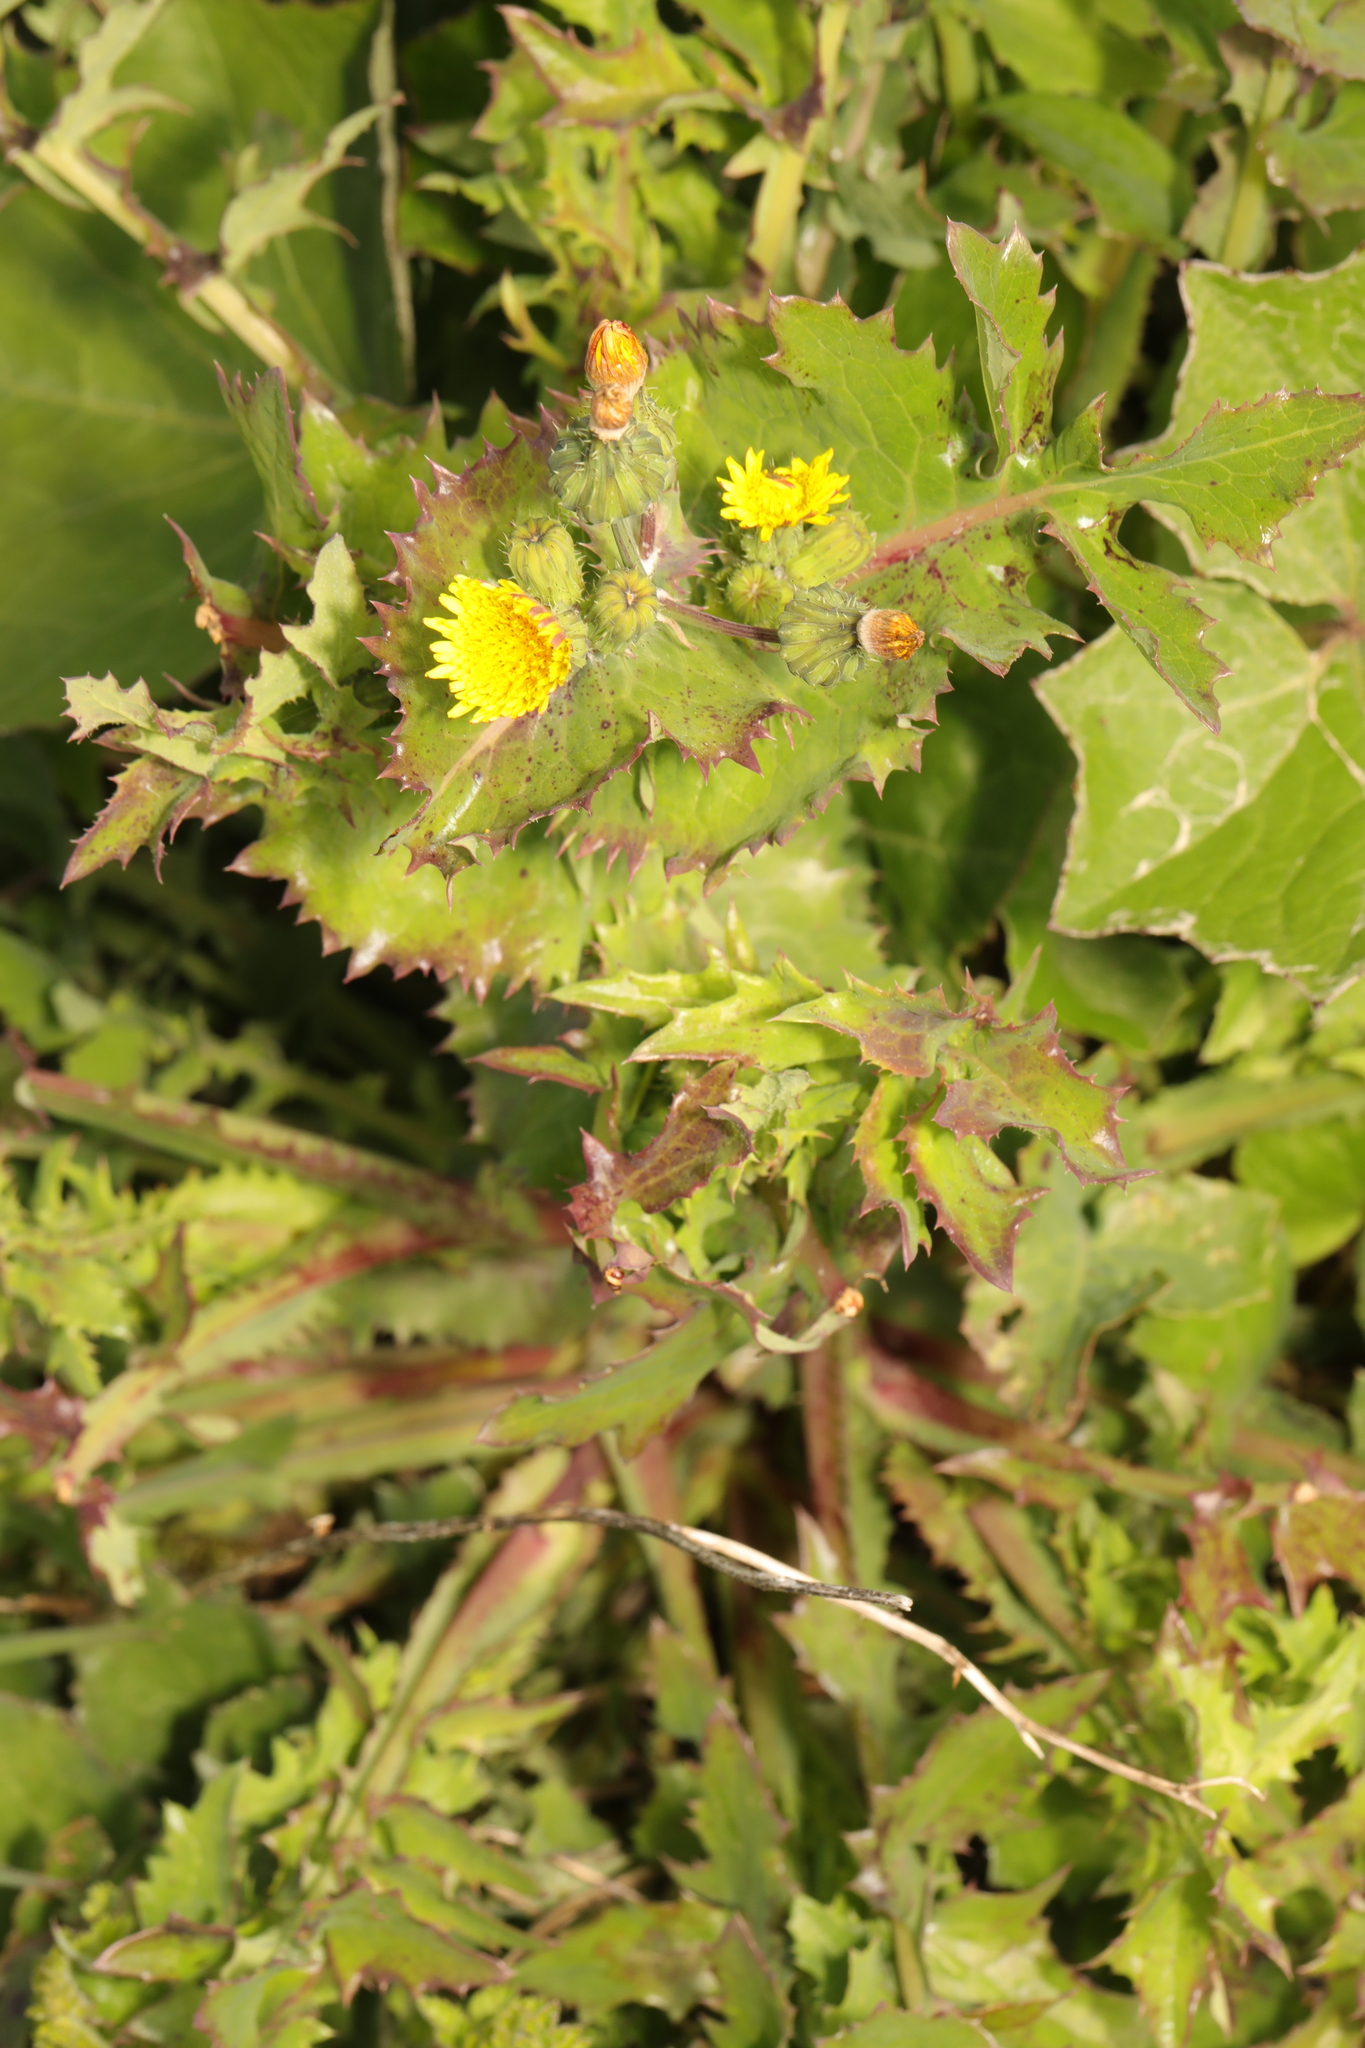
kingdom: Plantae
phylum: Tracheophyta
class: Magnoliopsida
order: Asterales
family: Asteraceae
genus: Sonchus
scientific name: Sonchus oleraceus
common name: Common sowthistle
